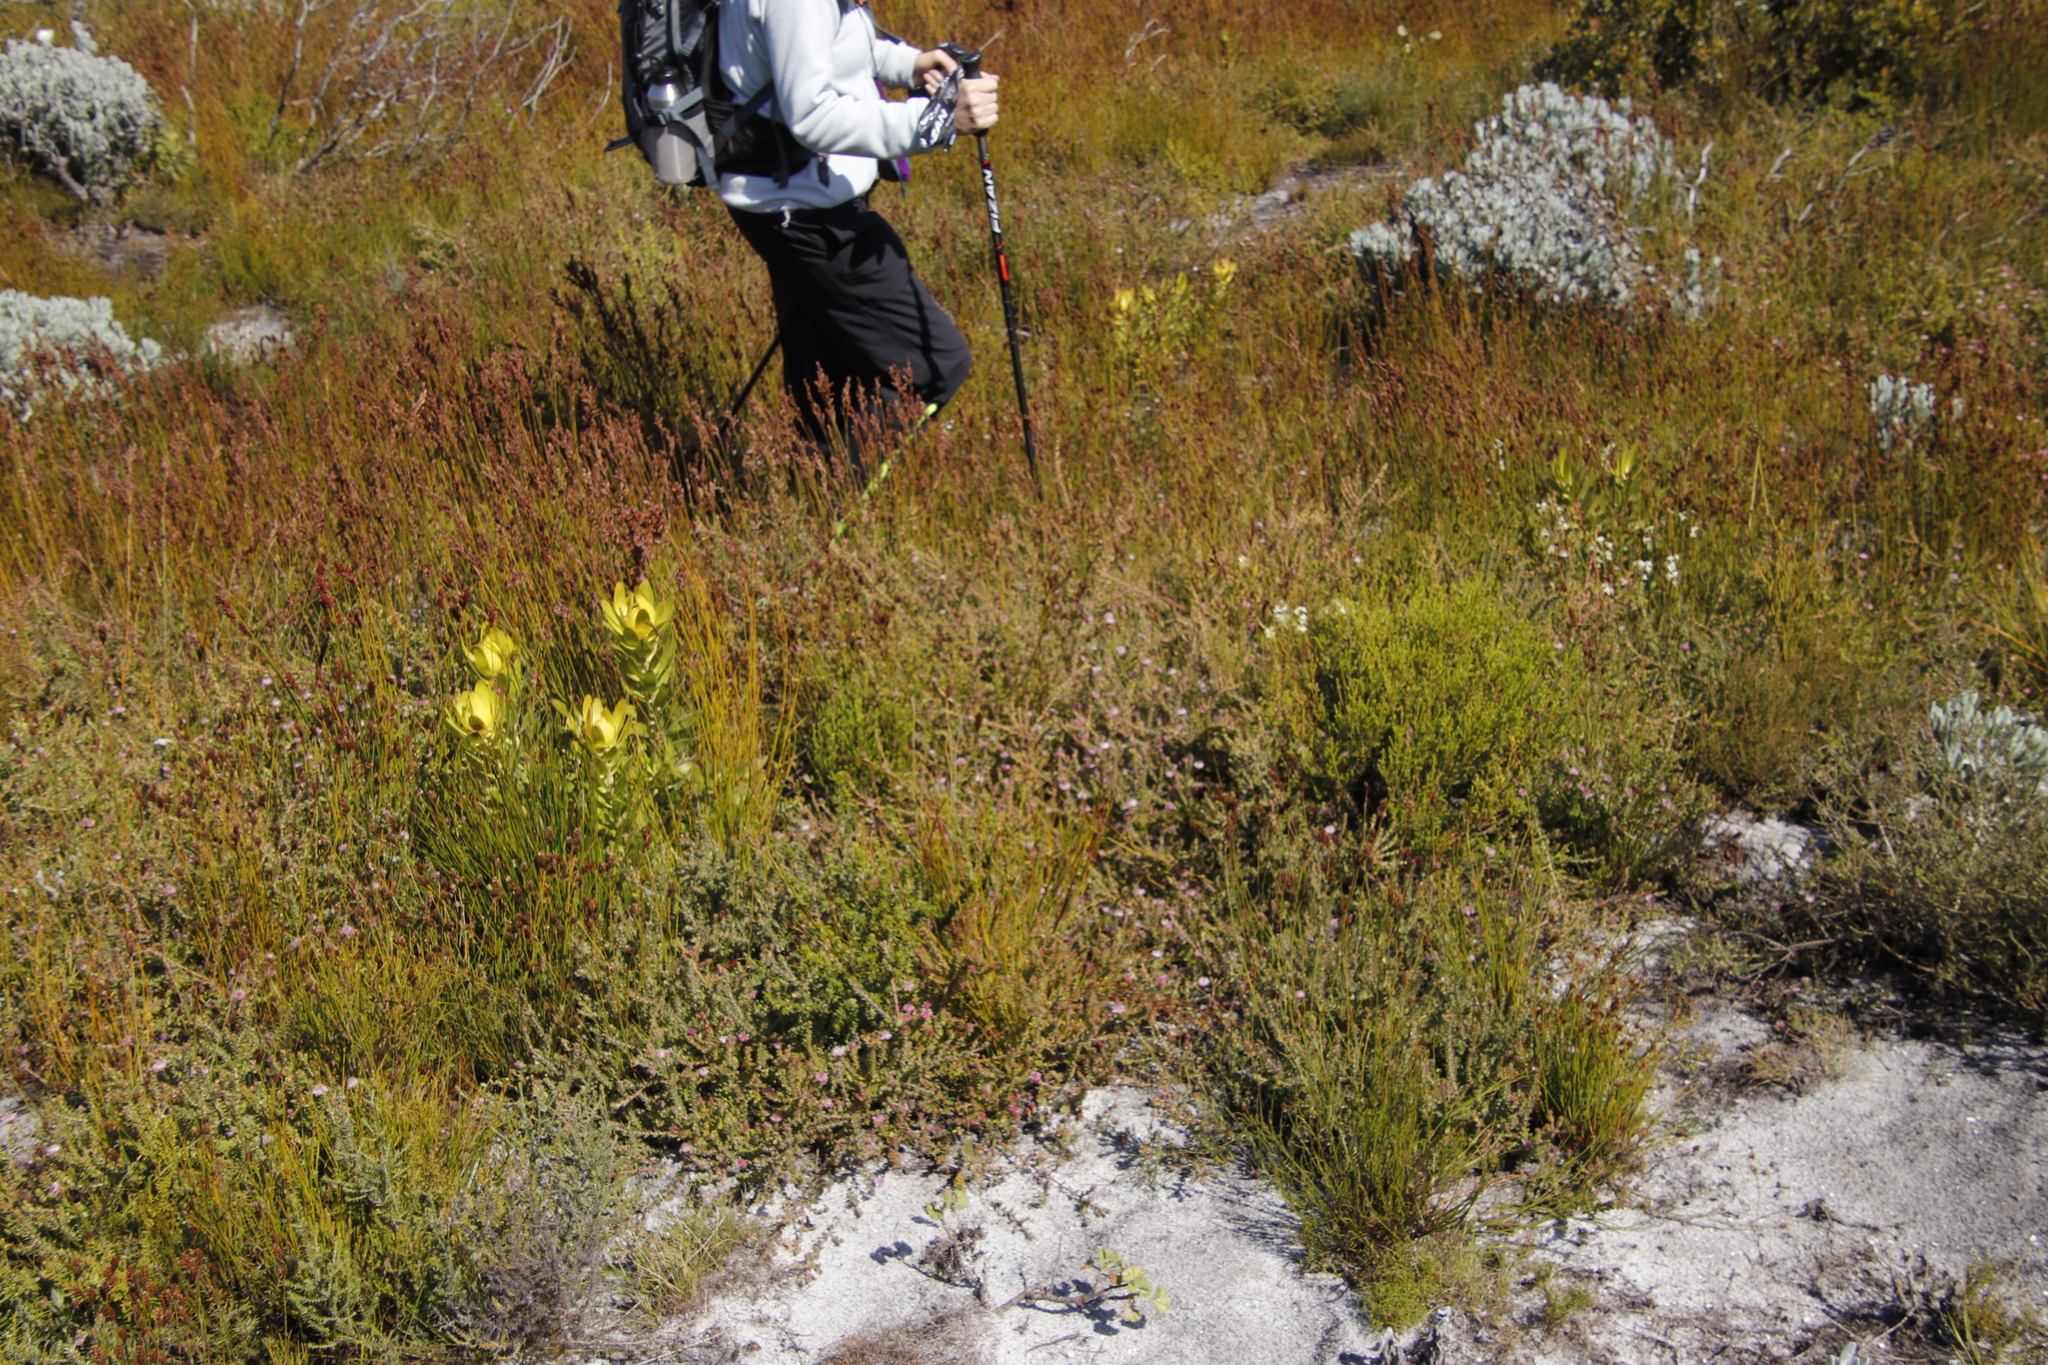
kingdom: Plantae
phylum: Tracheophyta
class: Magnoliopsida
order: Proteales
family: Proteaceae
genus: Diastella
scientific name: Diastella divaricata
